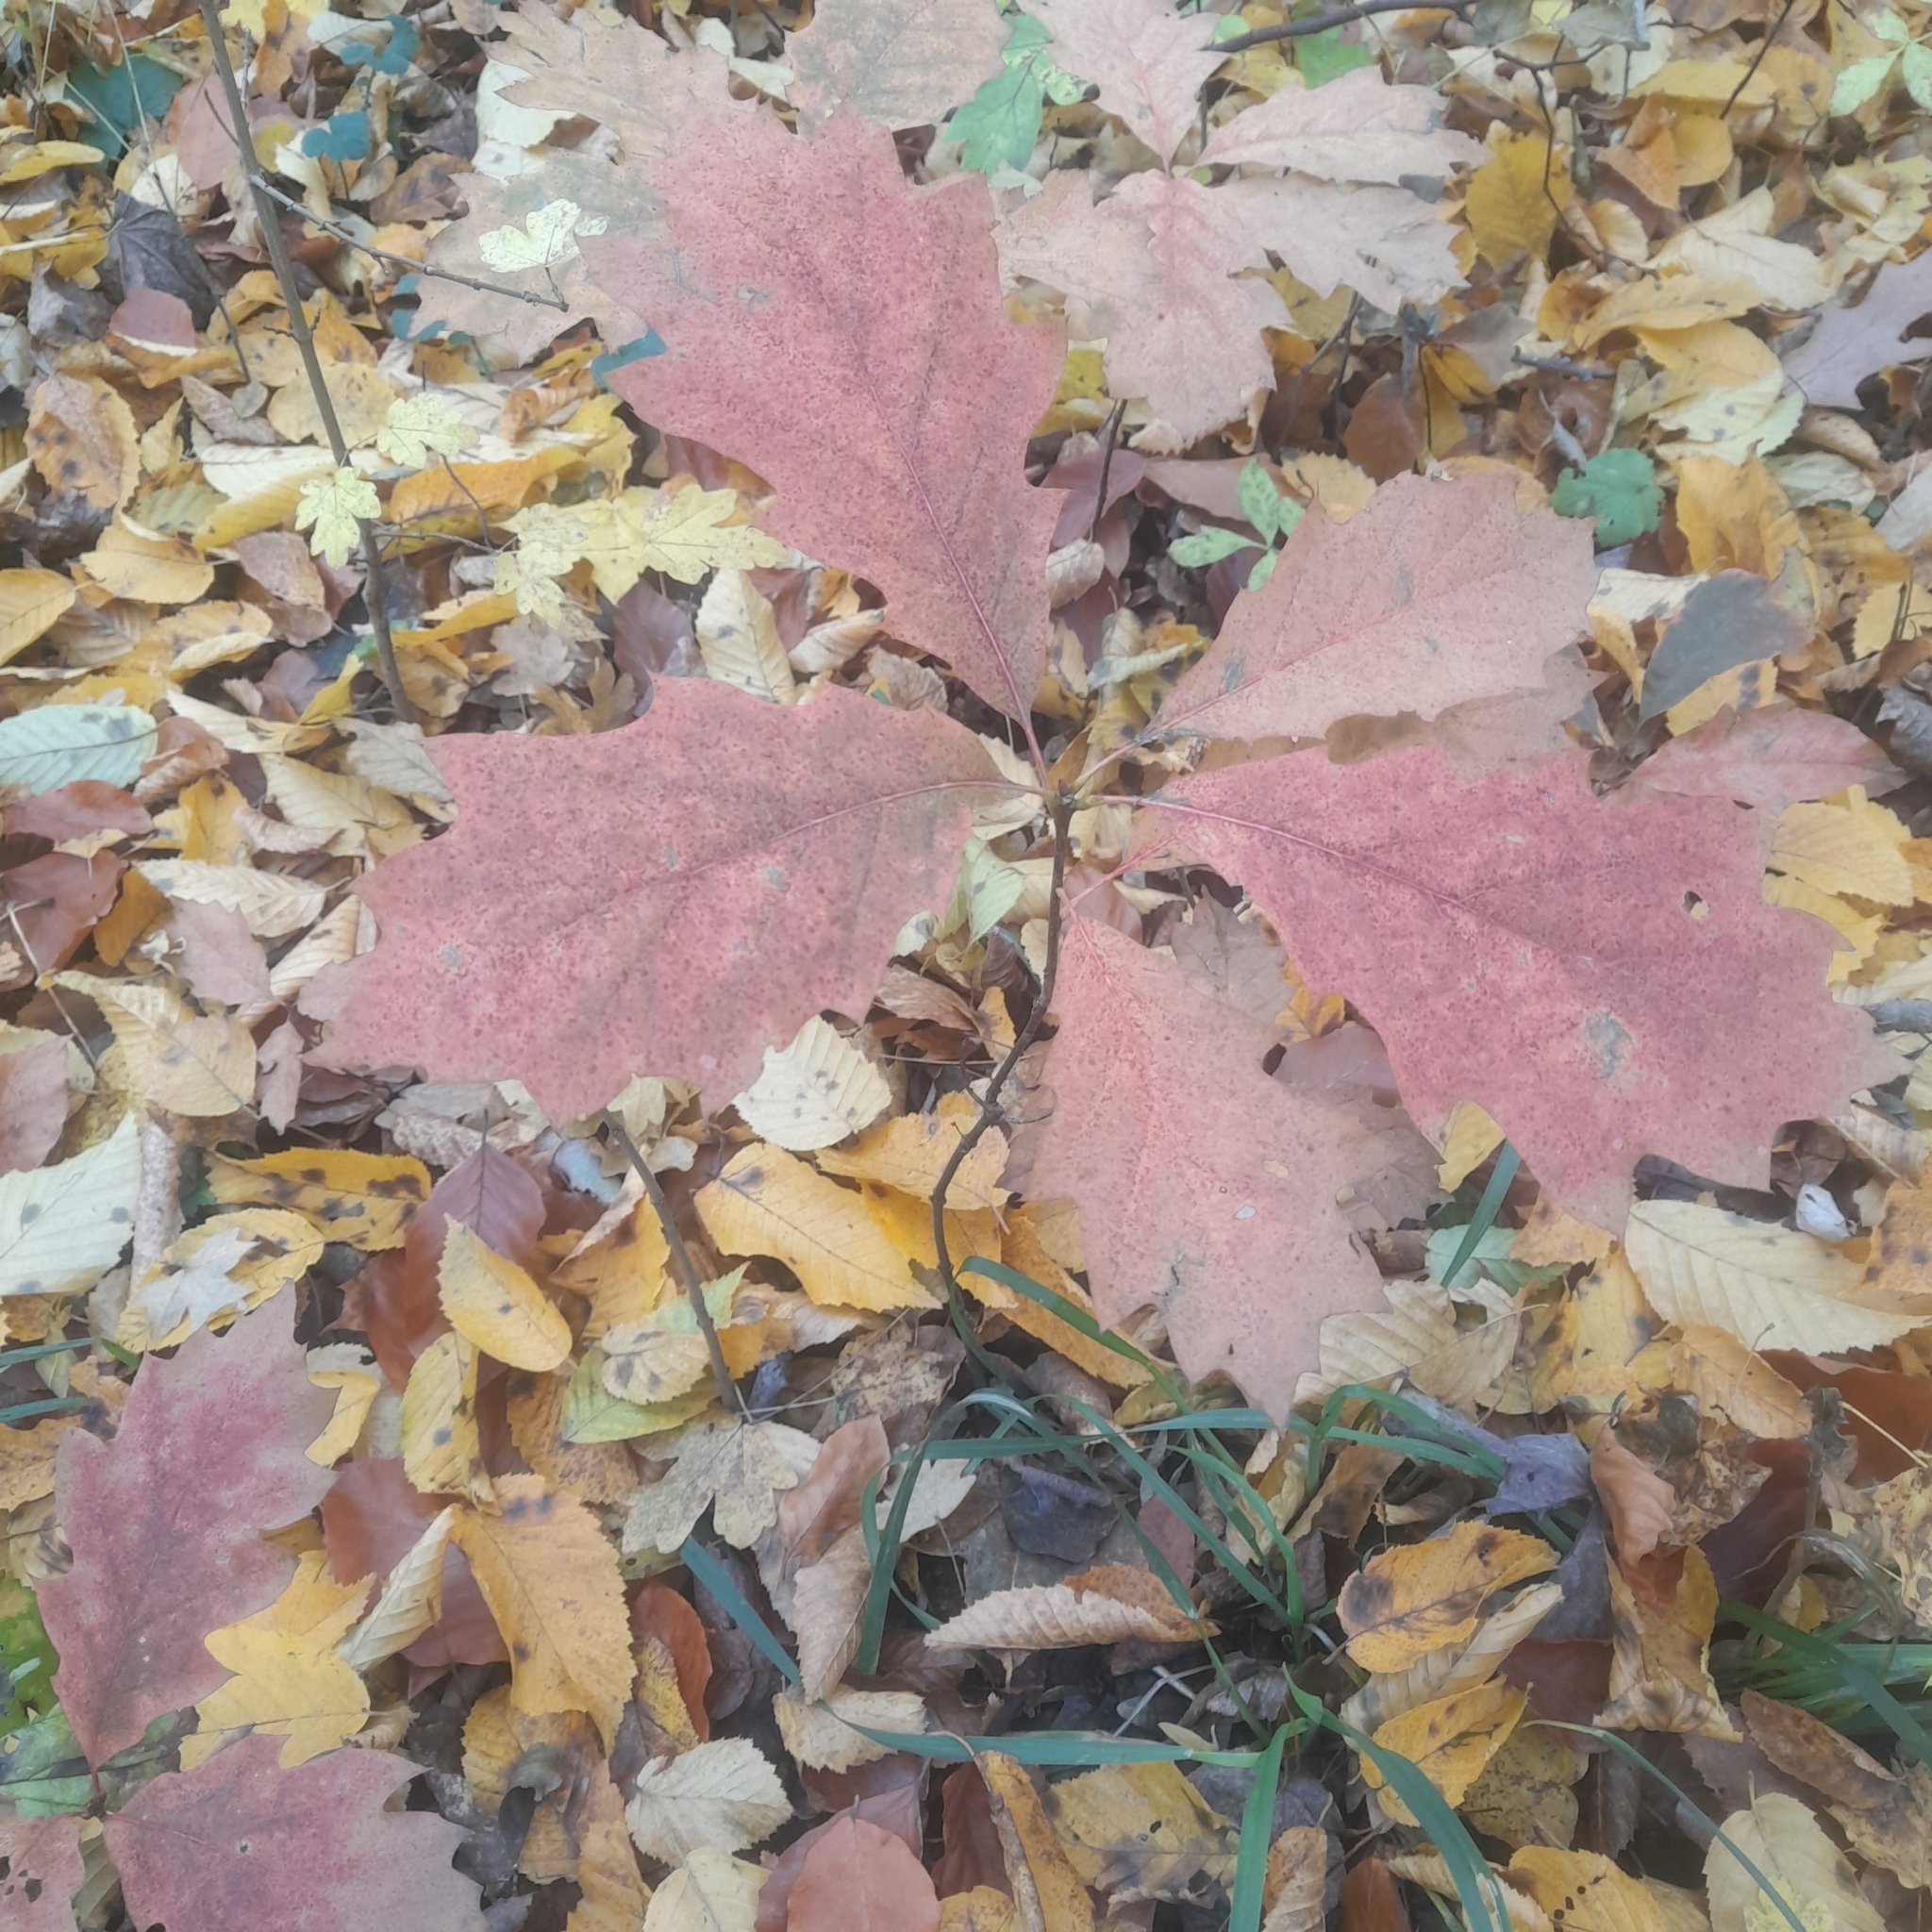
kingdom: Plantae
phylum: Tracheophyta
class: Magnoliopsida
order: Fagales
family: Fagaceae
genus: Quercus
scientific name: Quercus rubra
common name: Red oak
